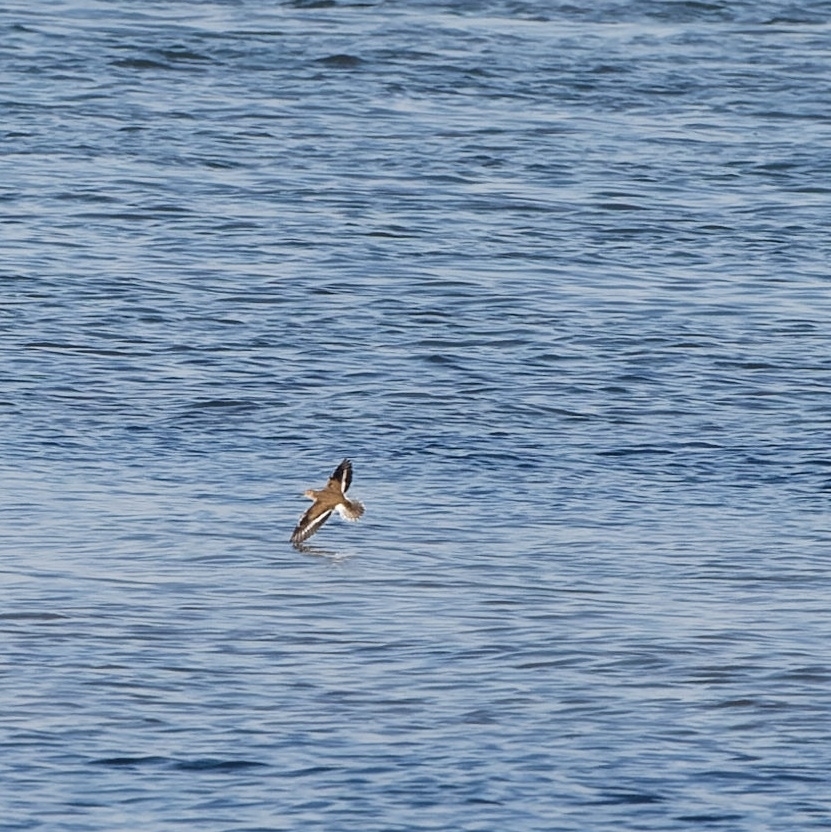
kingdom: Animalia
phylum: Chordata
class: Aves
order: Charadriiformes
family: Scolopacidae
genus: Actitis
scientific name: Actitis hypoleucos
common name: Common sandpiper
